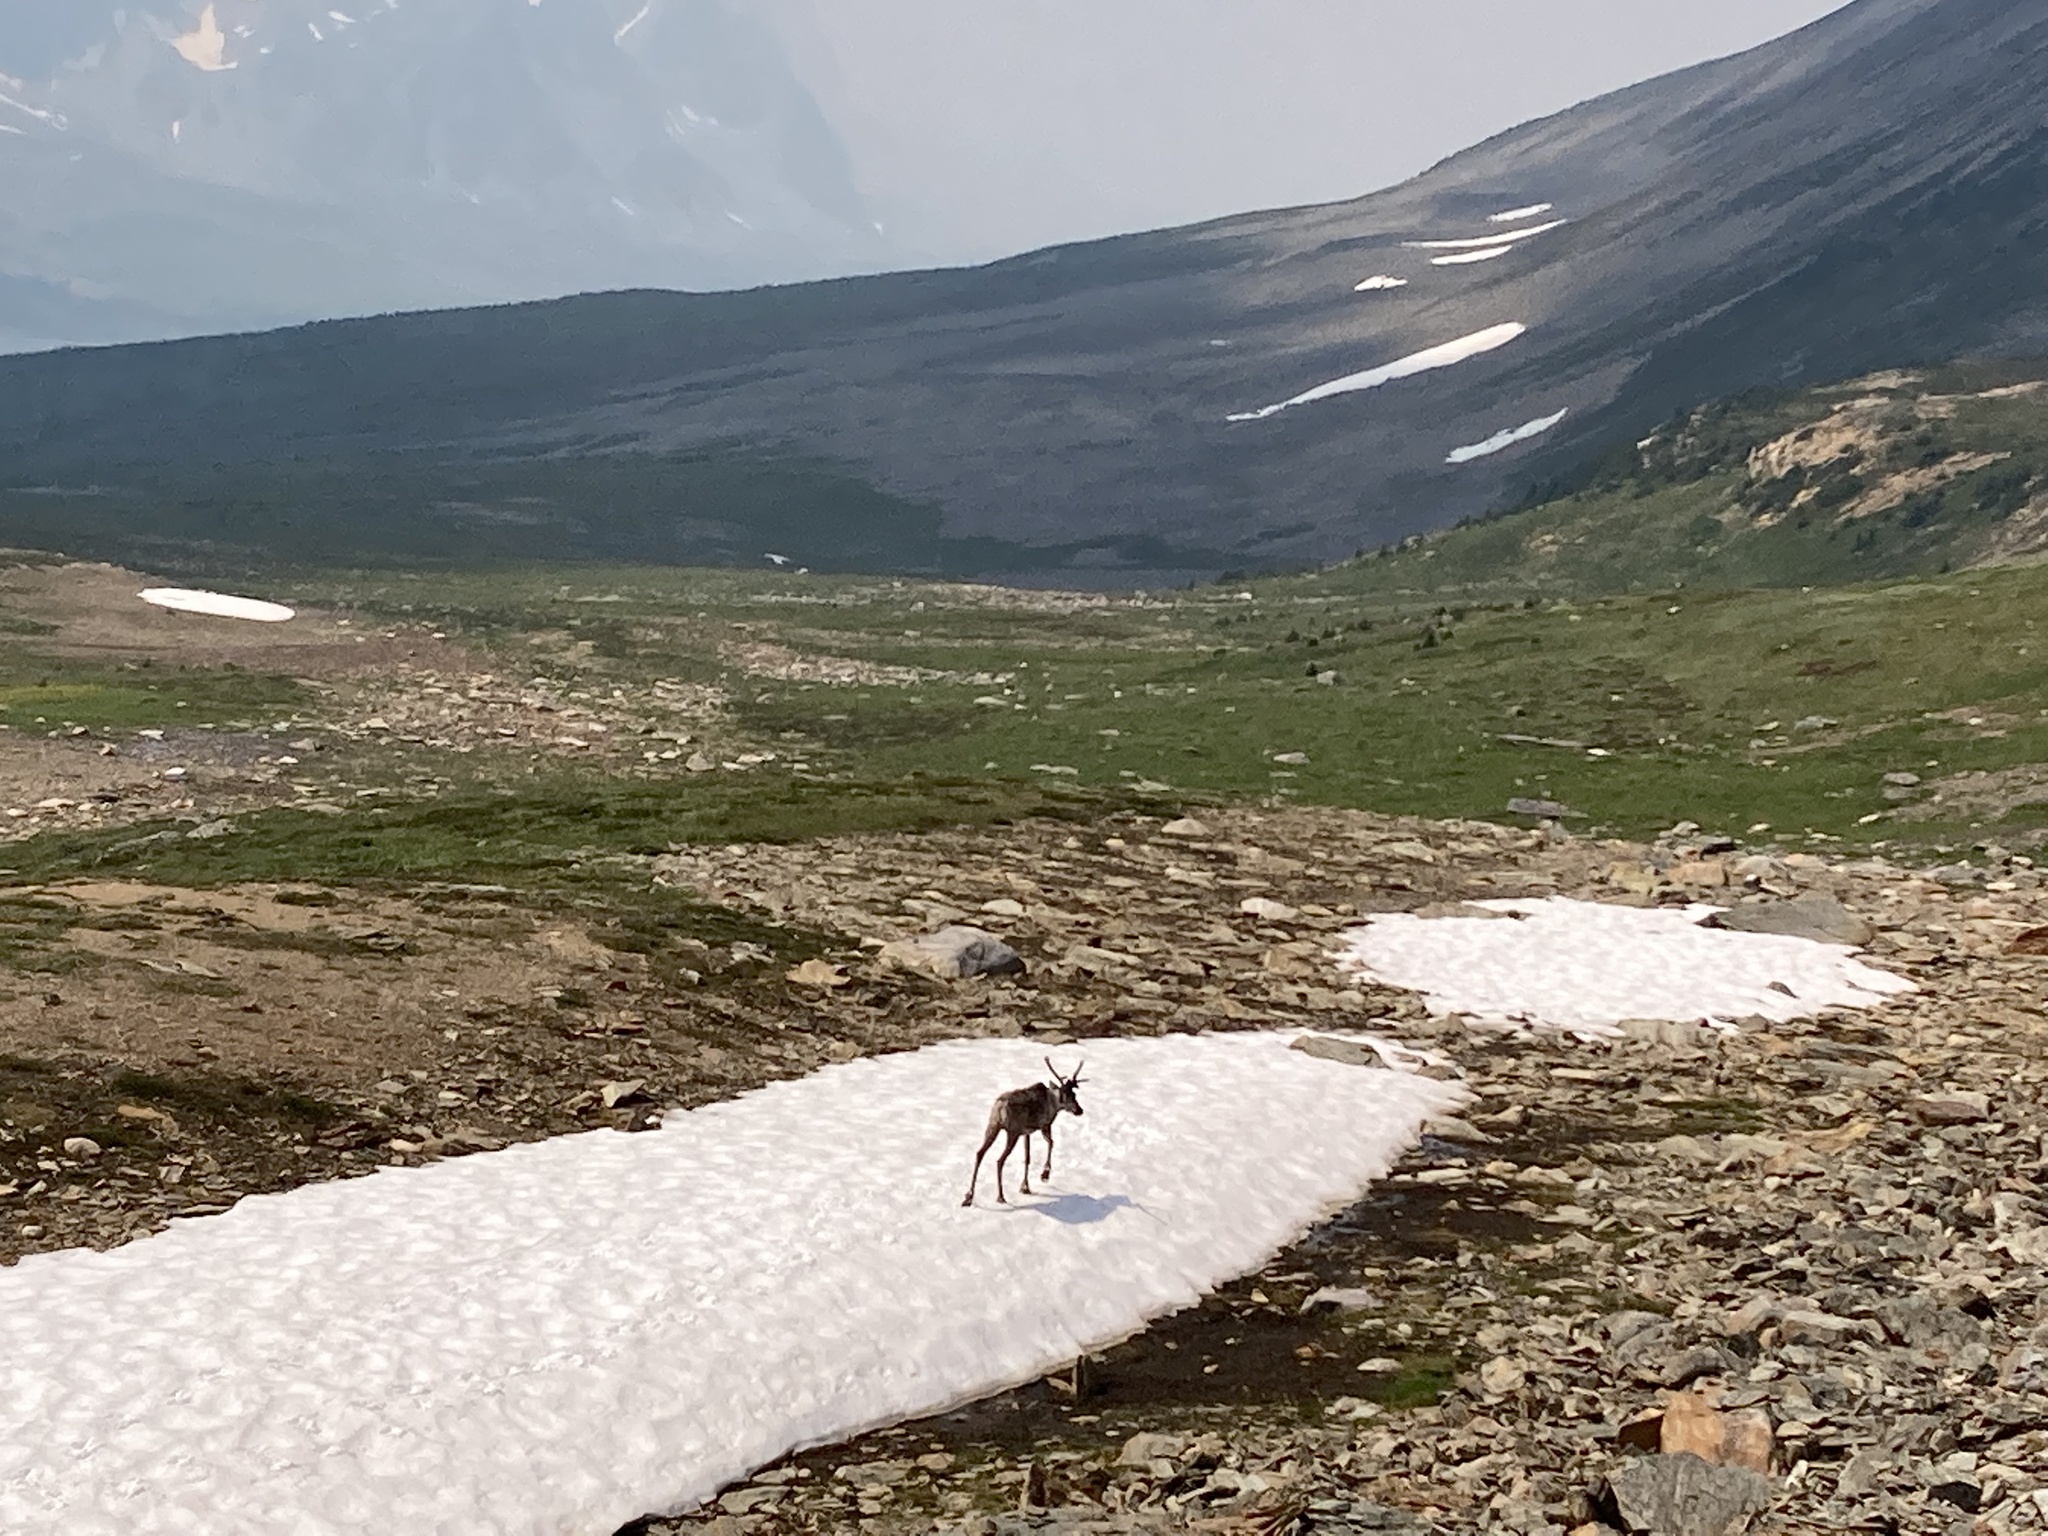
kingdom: Animalia
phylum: Chordata
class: Mammalia
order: Artiodactyla
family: Cervidae
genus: Rangifer
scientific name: Rangifer tarandus
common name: Reindeer
